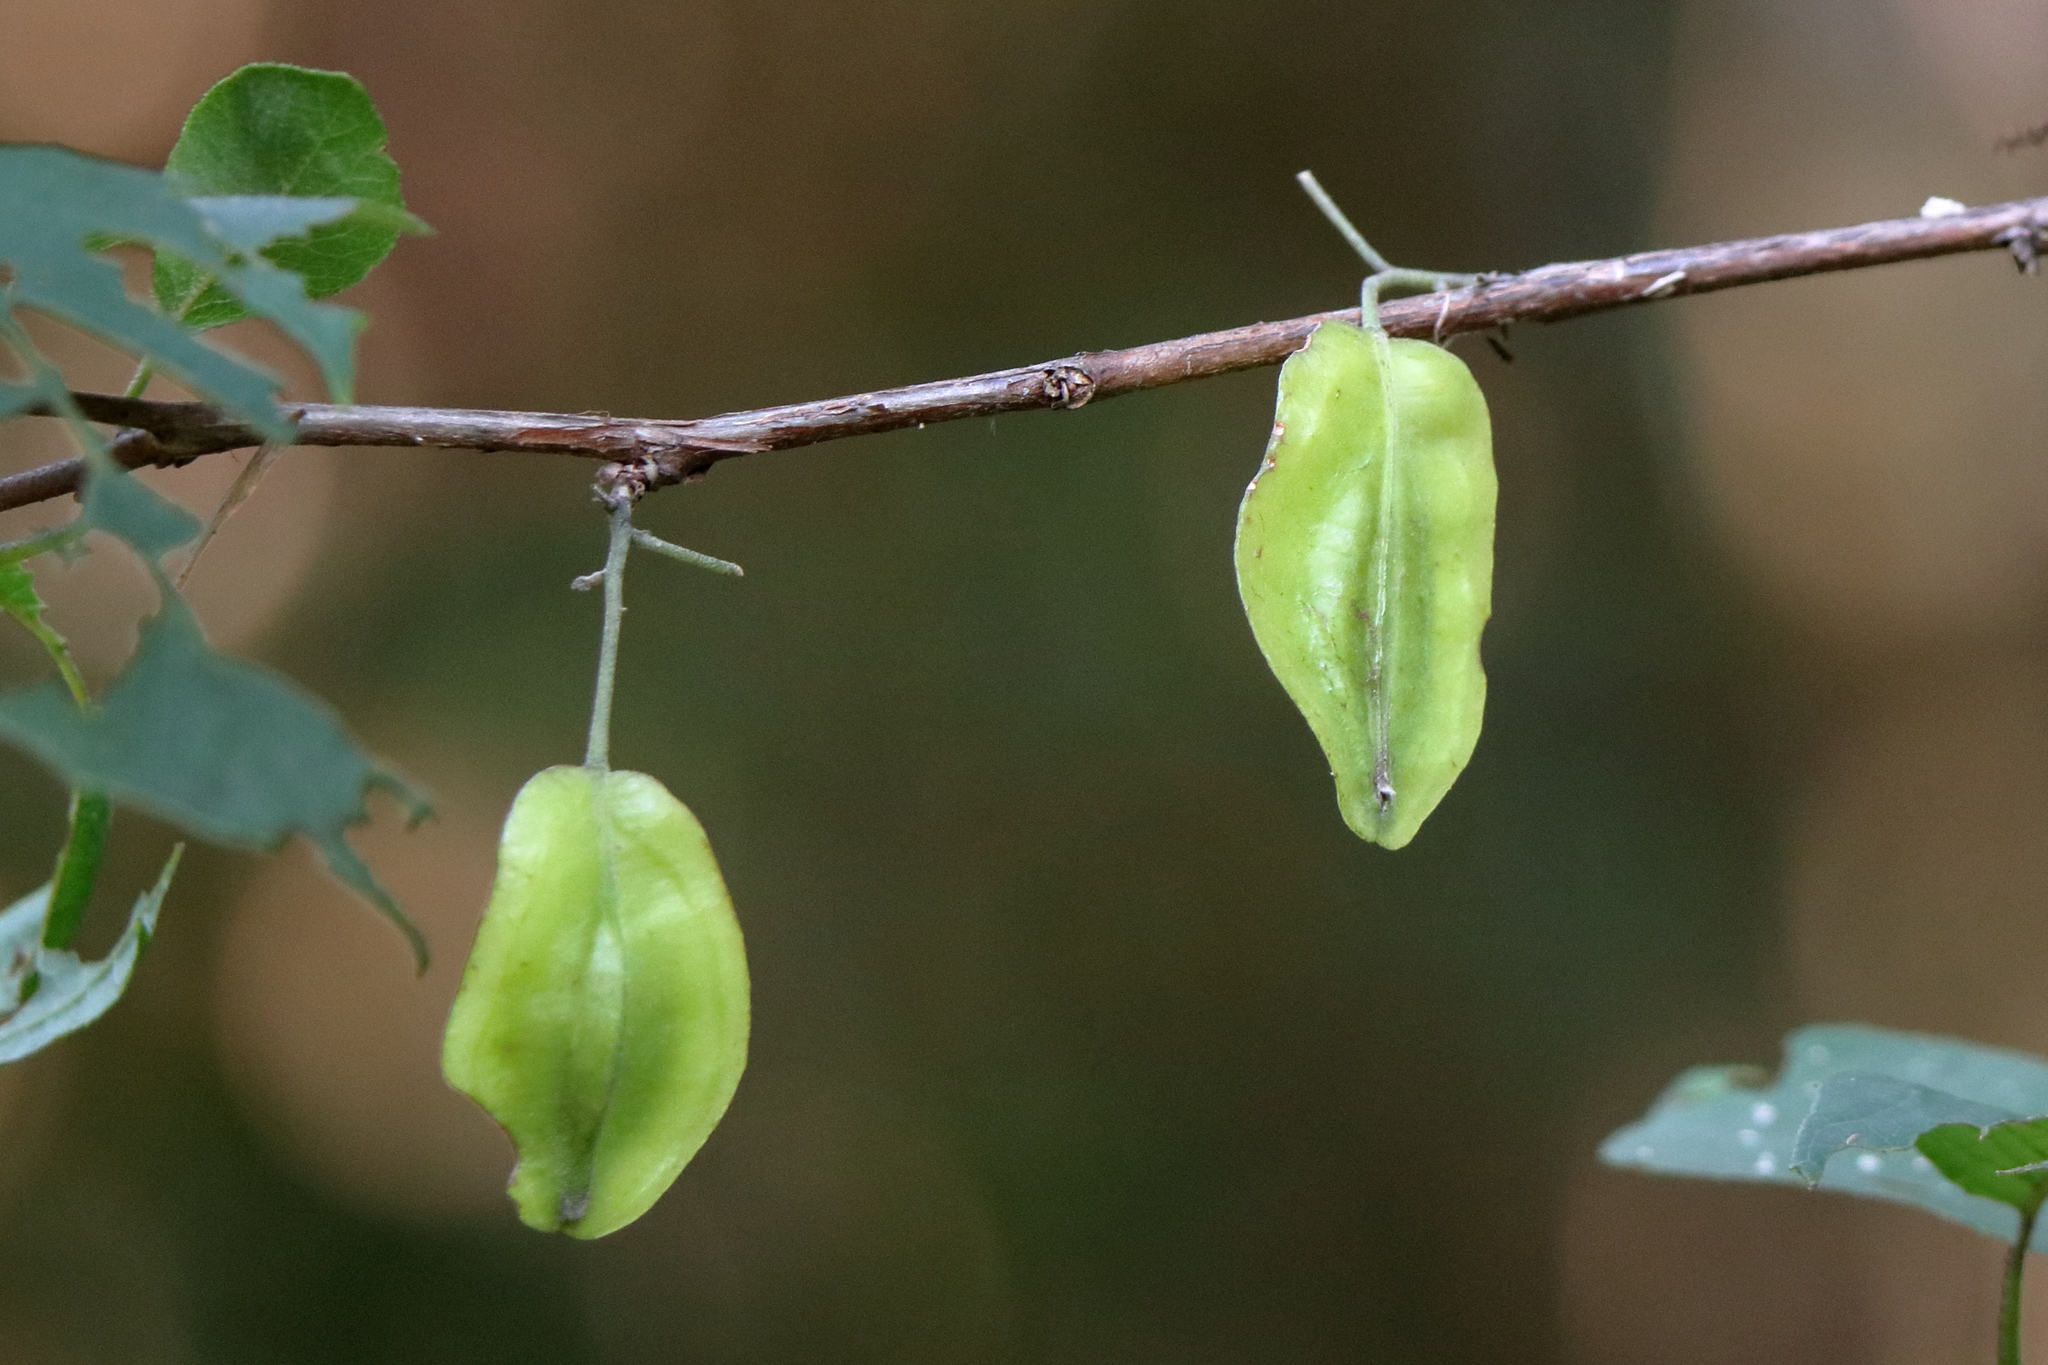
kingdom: Plantae
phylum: Tracheophyta
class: Magnoliopsida
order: Ericales
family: Styracaceae
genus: Halesia
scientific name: Halesia diptera
